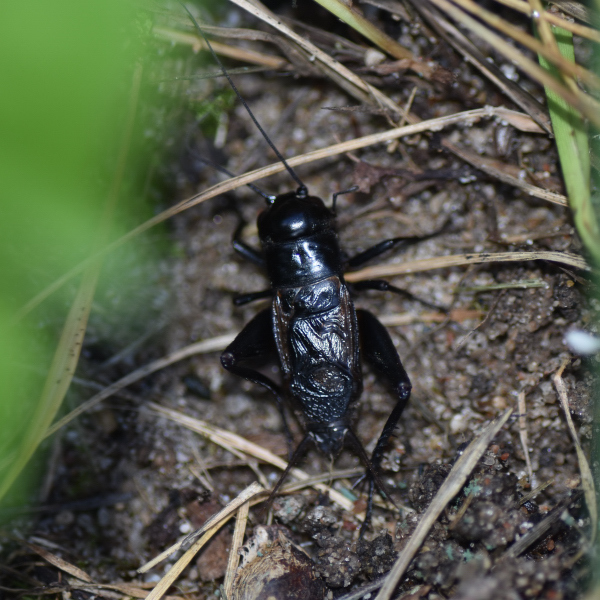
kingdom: Animalia
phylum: Arthropoda
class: Insecta
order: Orthoptera
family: Gryllidae
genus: Gryllus
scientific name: Gryllus pennsylvanicus
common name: Fall field cricket
